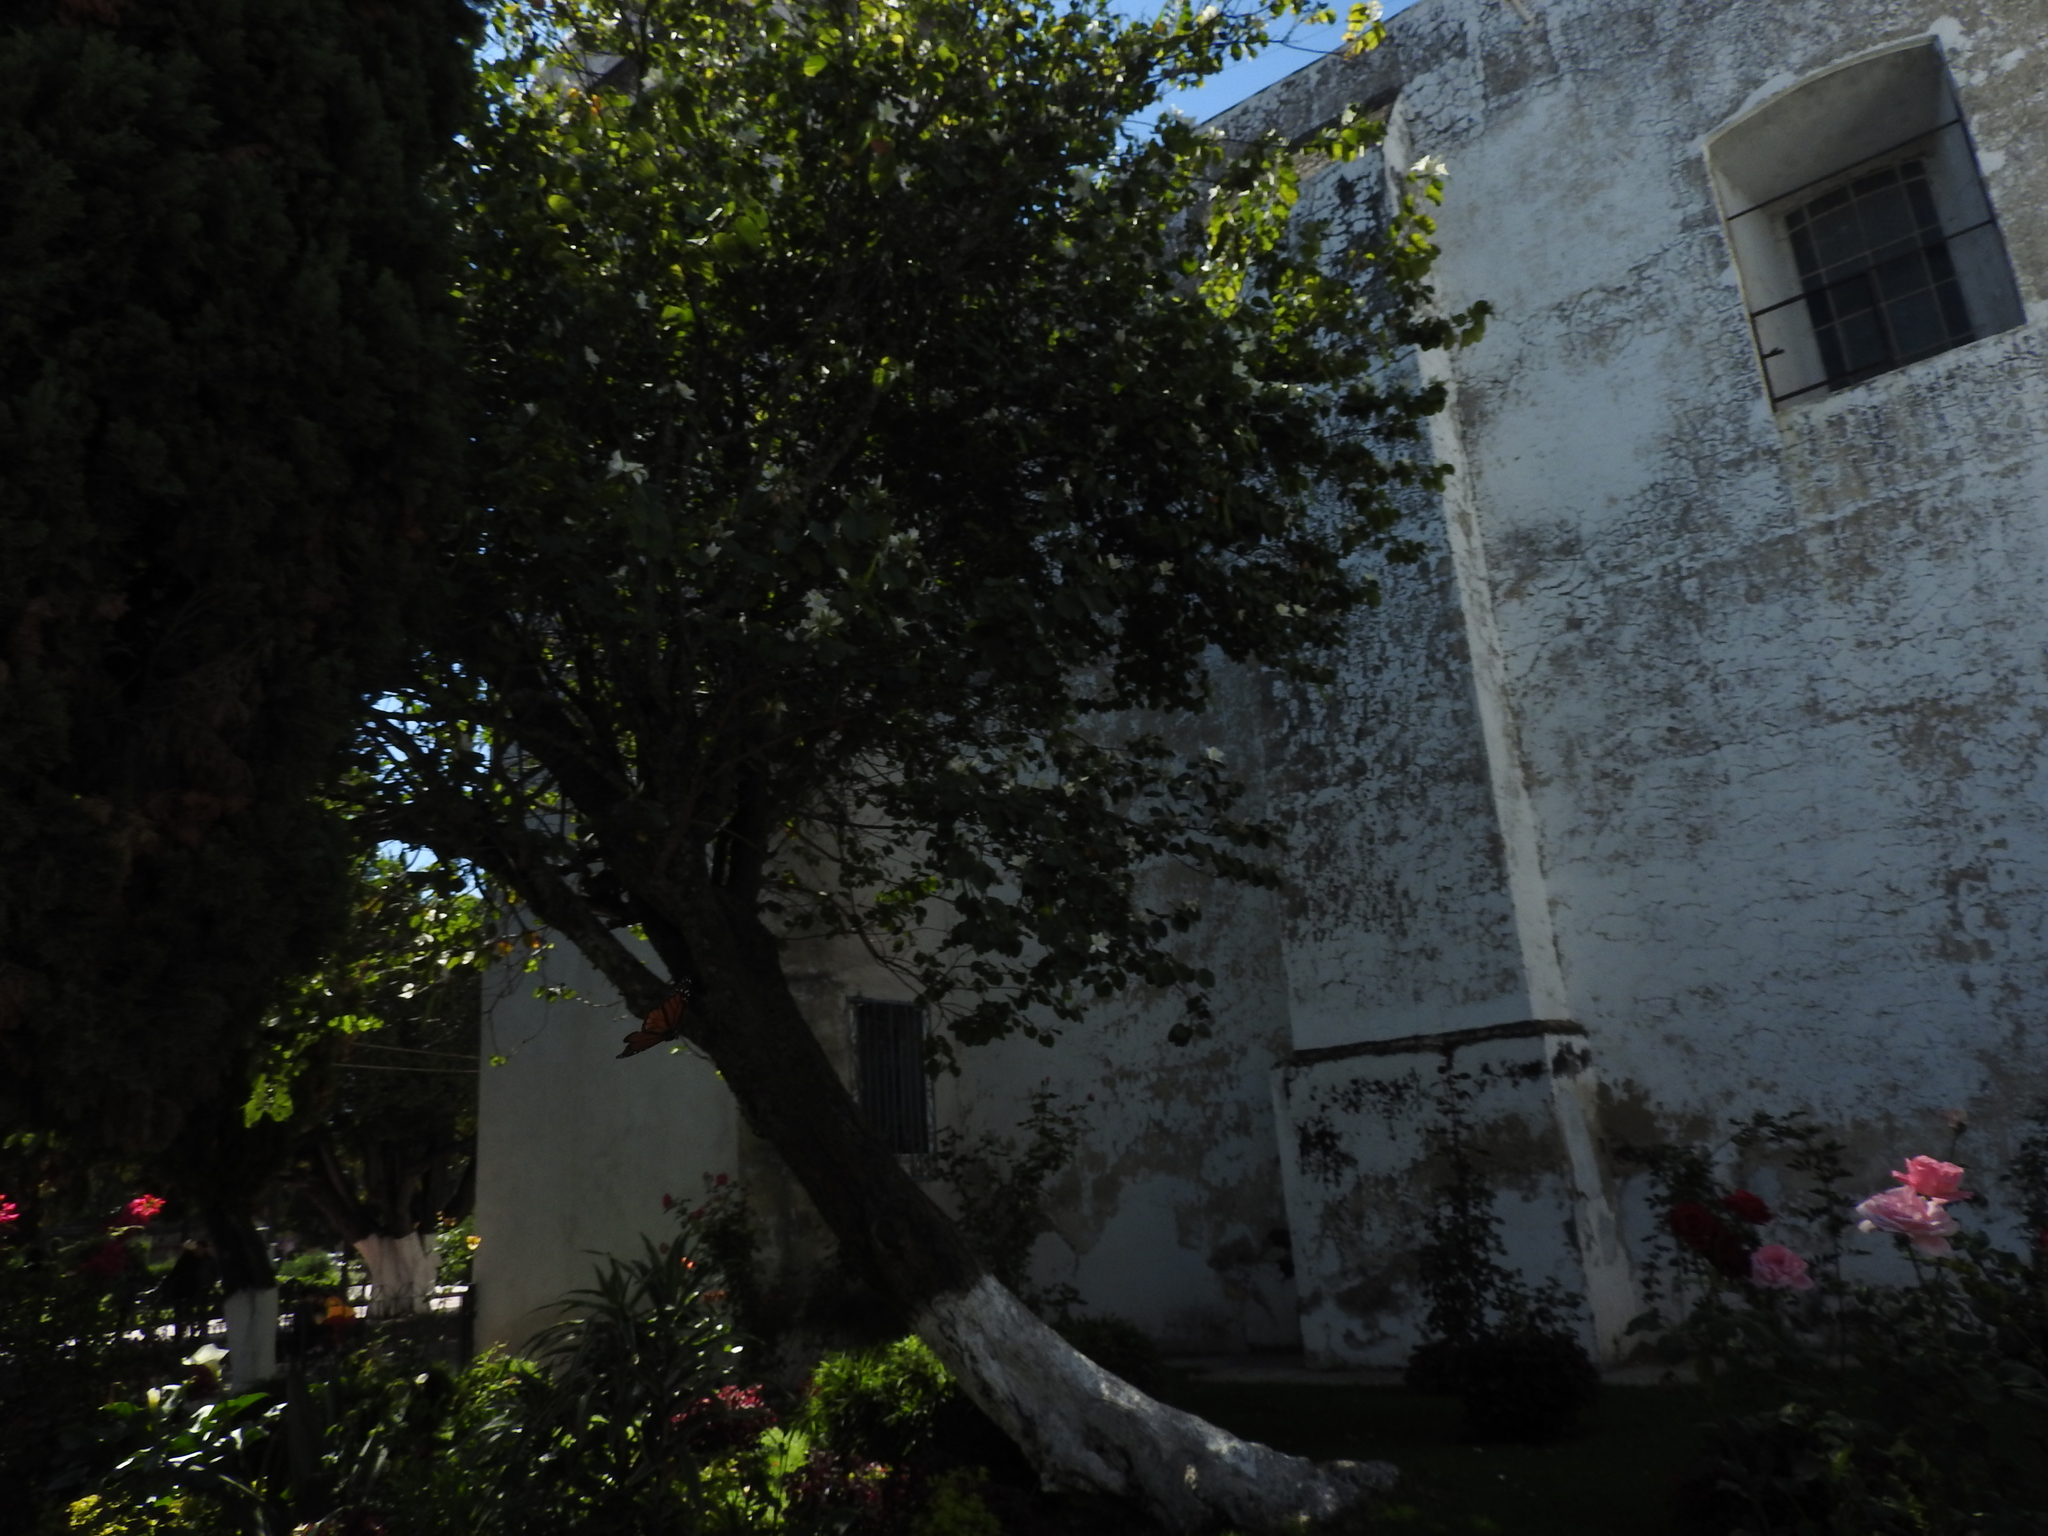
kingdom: Animalia
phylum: Arthropoda
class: Insecta
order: Lepidoptera
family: Nymphalidae
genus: Danaus
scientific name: Danaus plexippus
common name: Monarch
